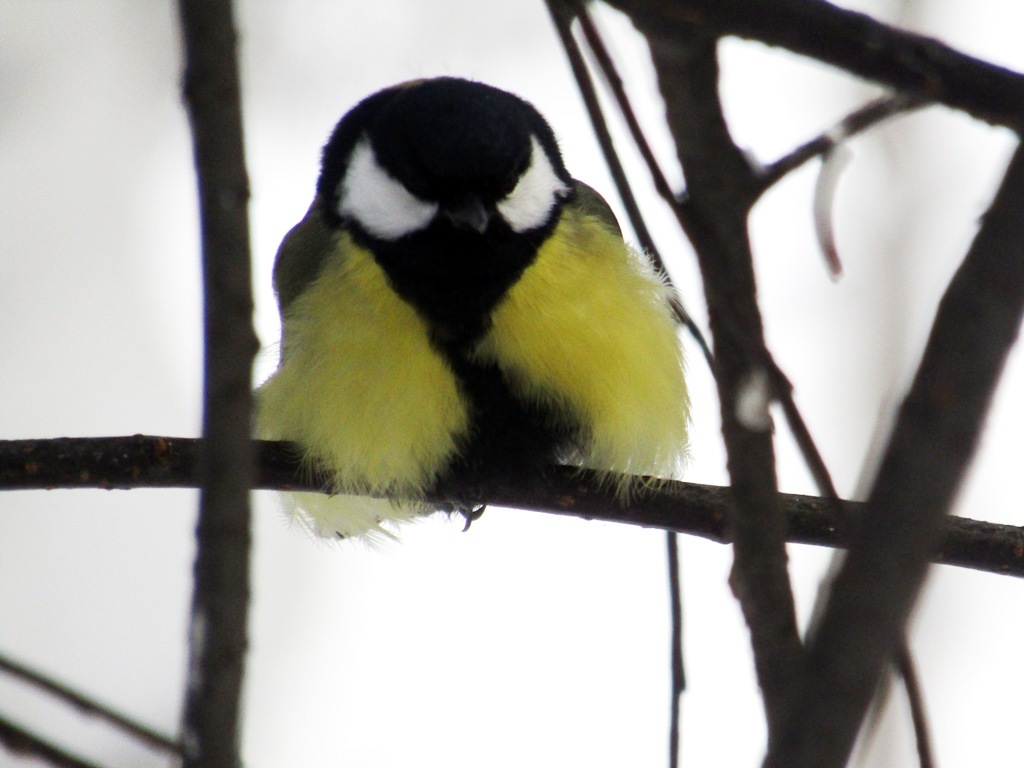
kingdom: Animalia
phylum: Chordata
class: Aves
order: Passeriformes
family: Paridae
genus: Parus
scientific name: Parus major
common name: Great tit
